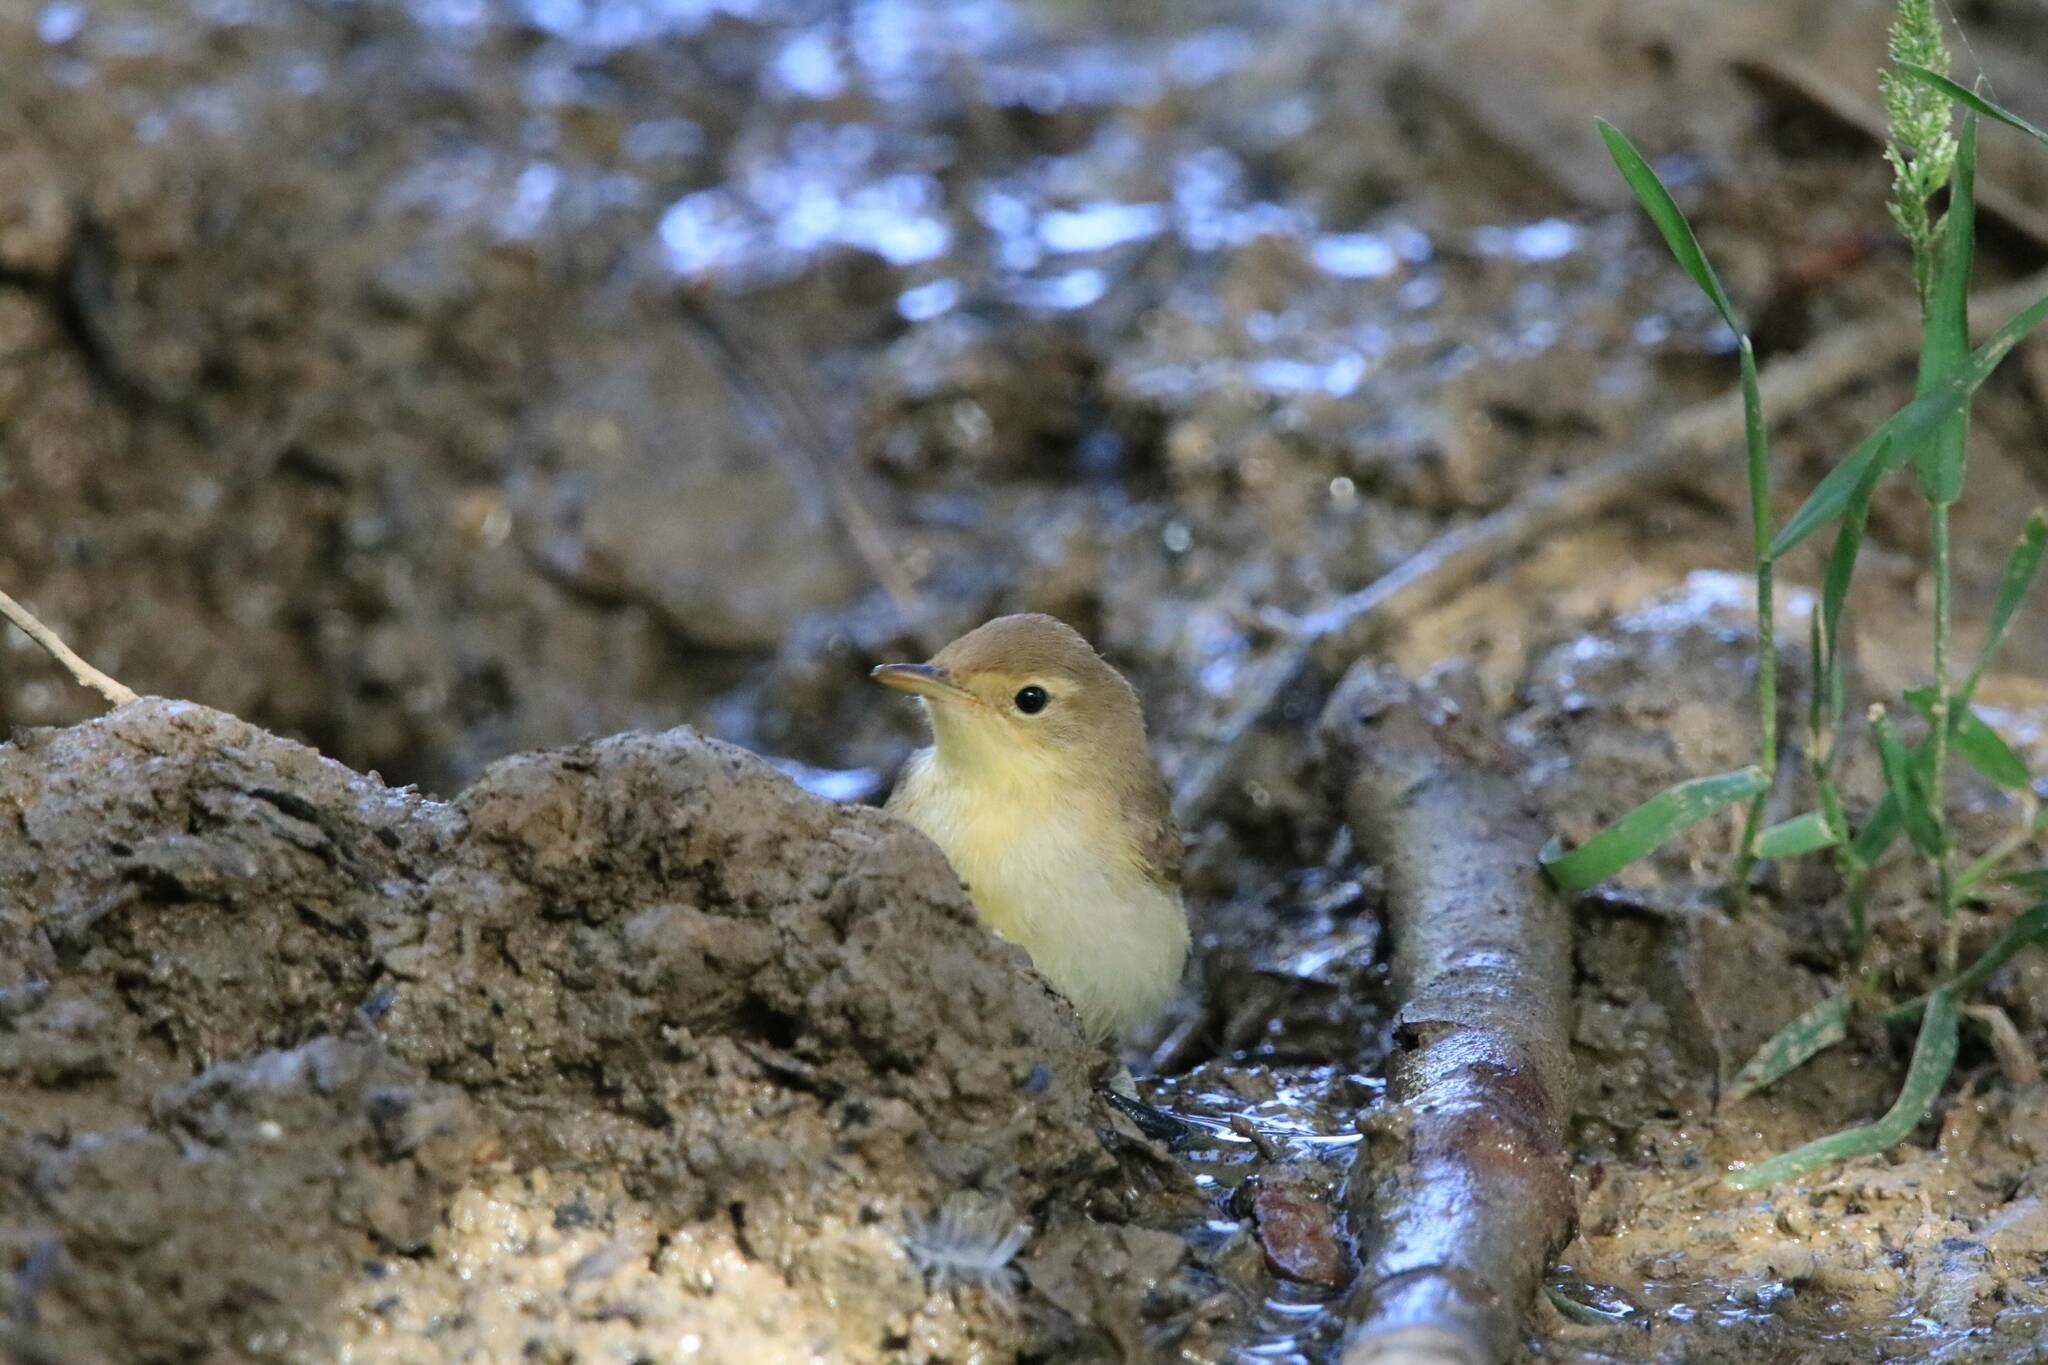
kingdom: Animalia
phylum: Chordata
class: Aves
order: Passeriformes
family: Acrocephalidae
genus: Hippolais
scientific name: Hippolais polyglotta
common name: Melodious warbler
